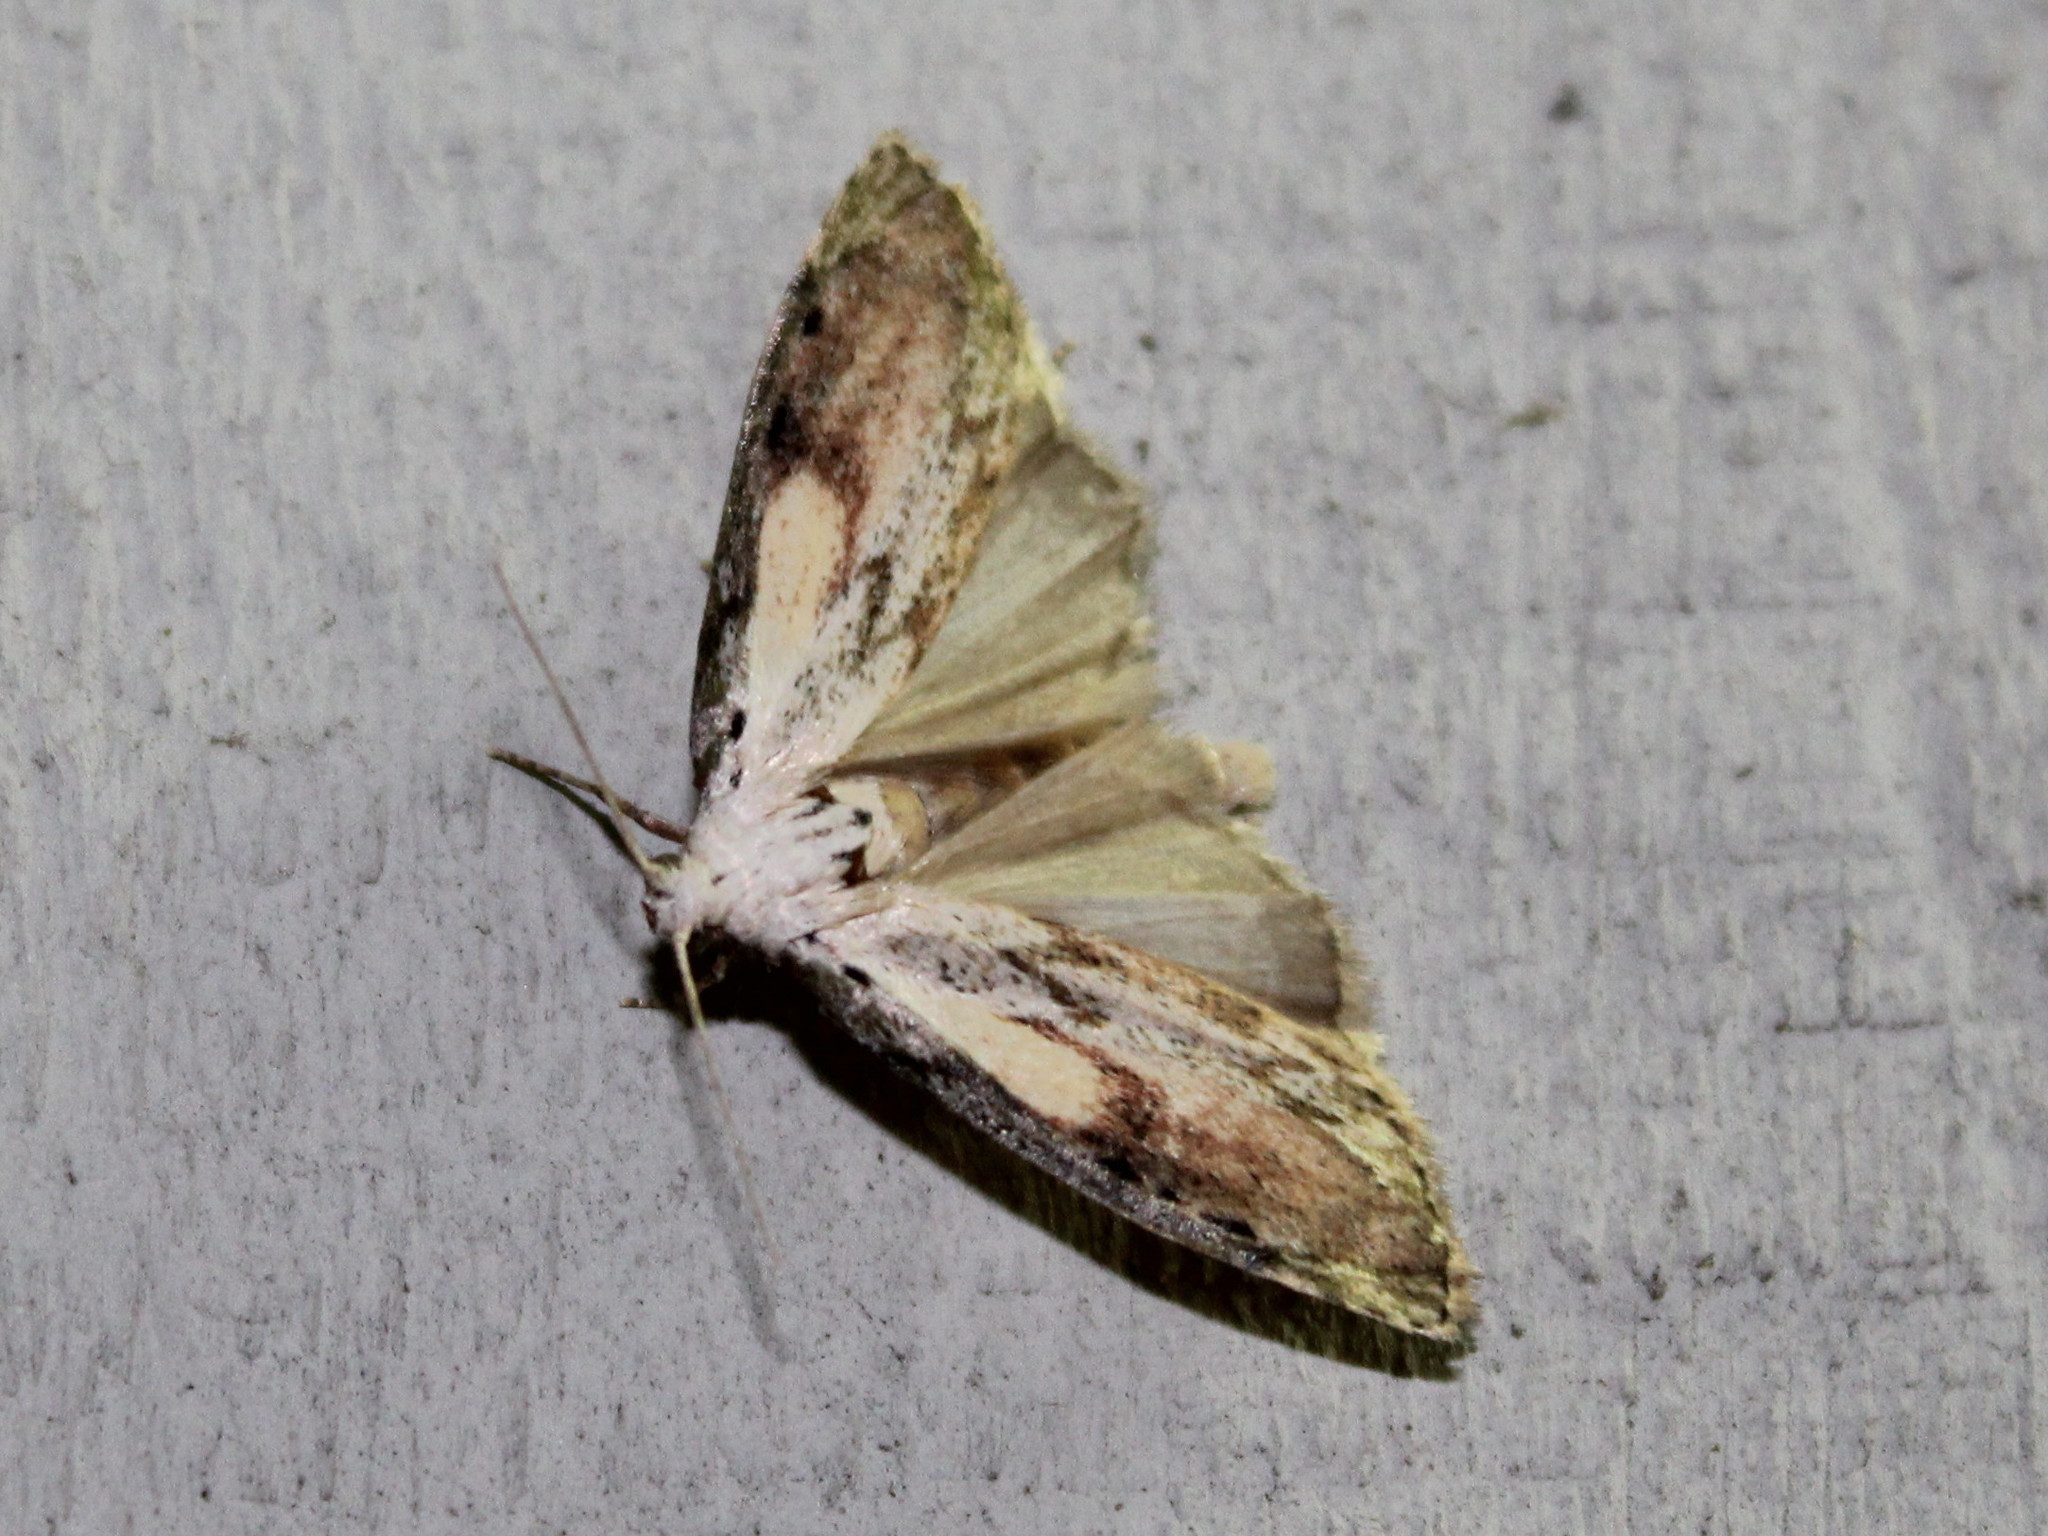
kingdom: Animalia
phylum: Arthropoda
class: Insecta
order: Lepidoptera
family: Pyralidae
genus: Aphomia
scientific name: Aphomia sociella
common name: Bee moth
